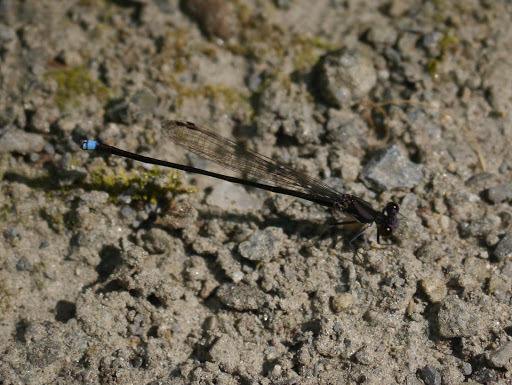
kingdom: Animalia
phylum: Arthropoda
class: Insecta
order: Odonata
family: Coenagrionidae
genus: Argia
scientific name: Argia tibialis
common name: Blue-tipped dancer
